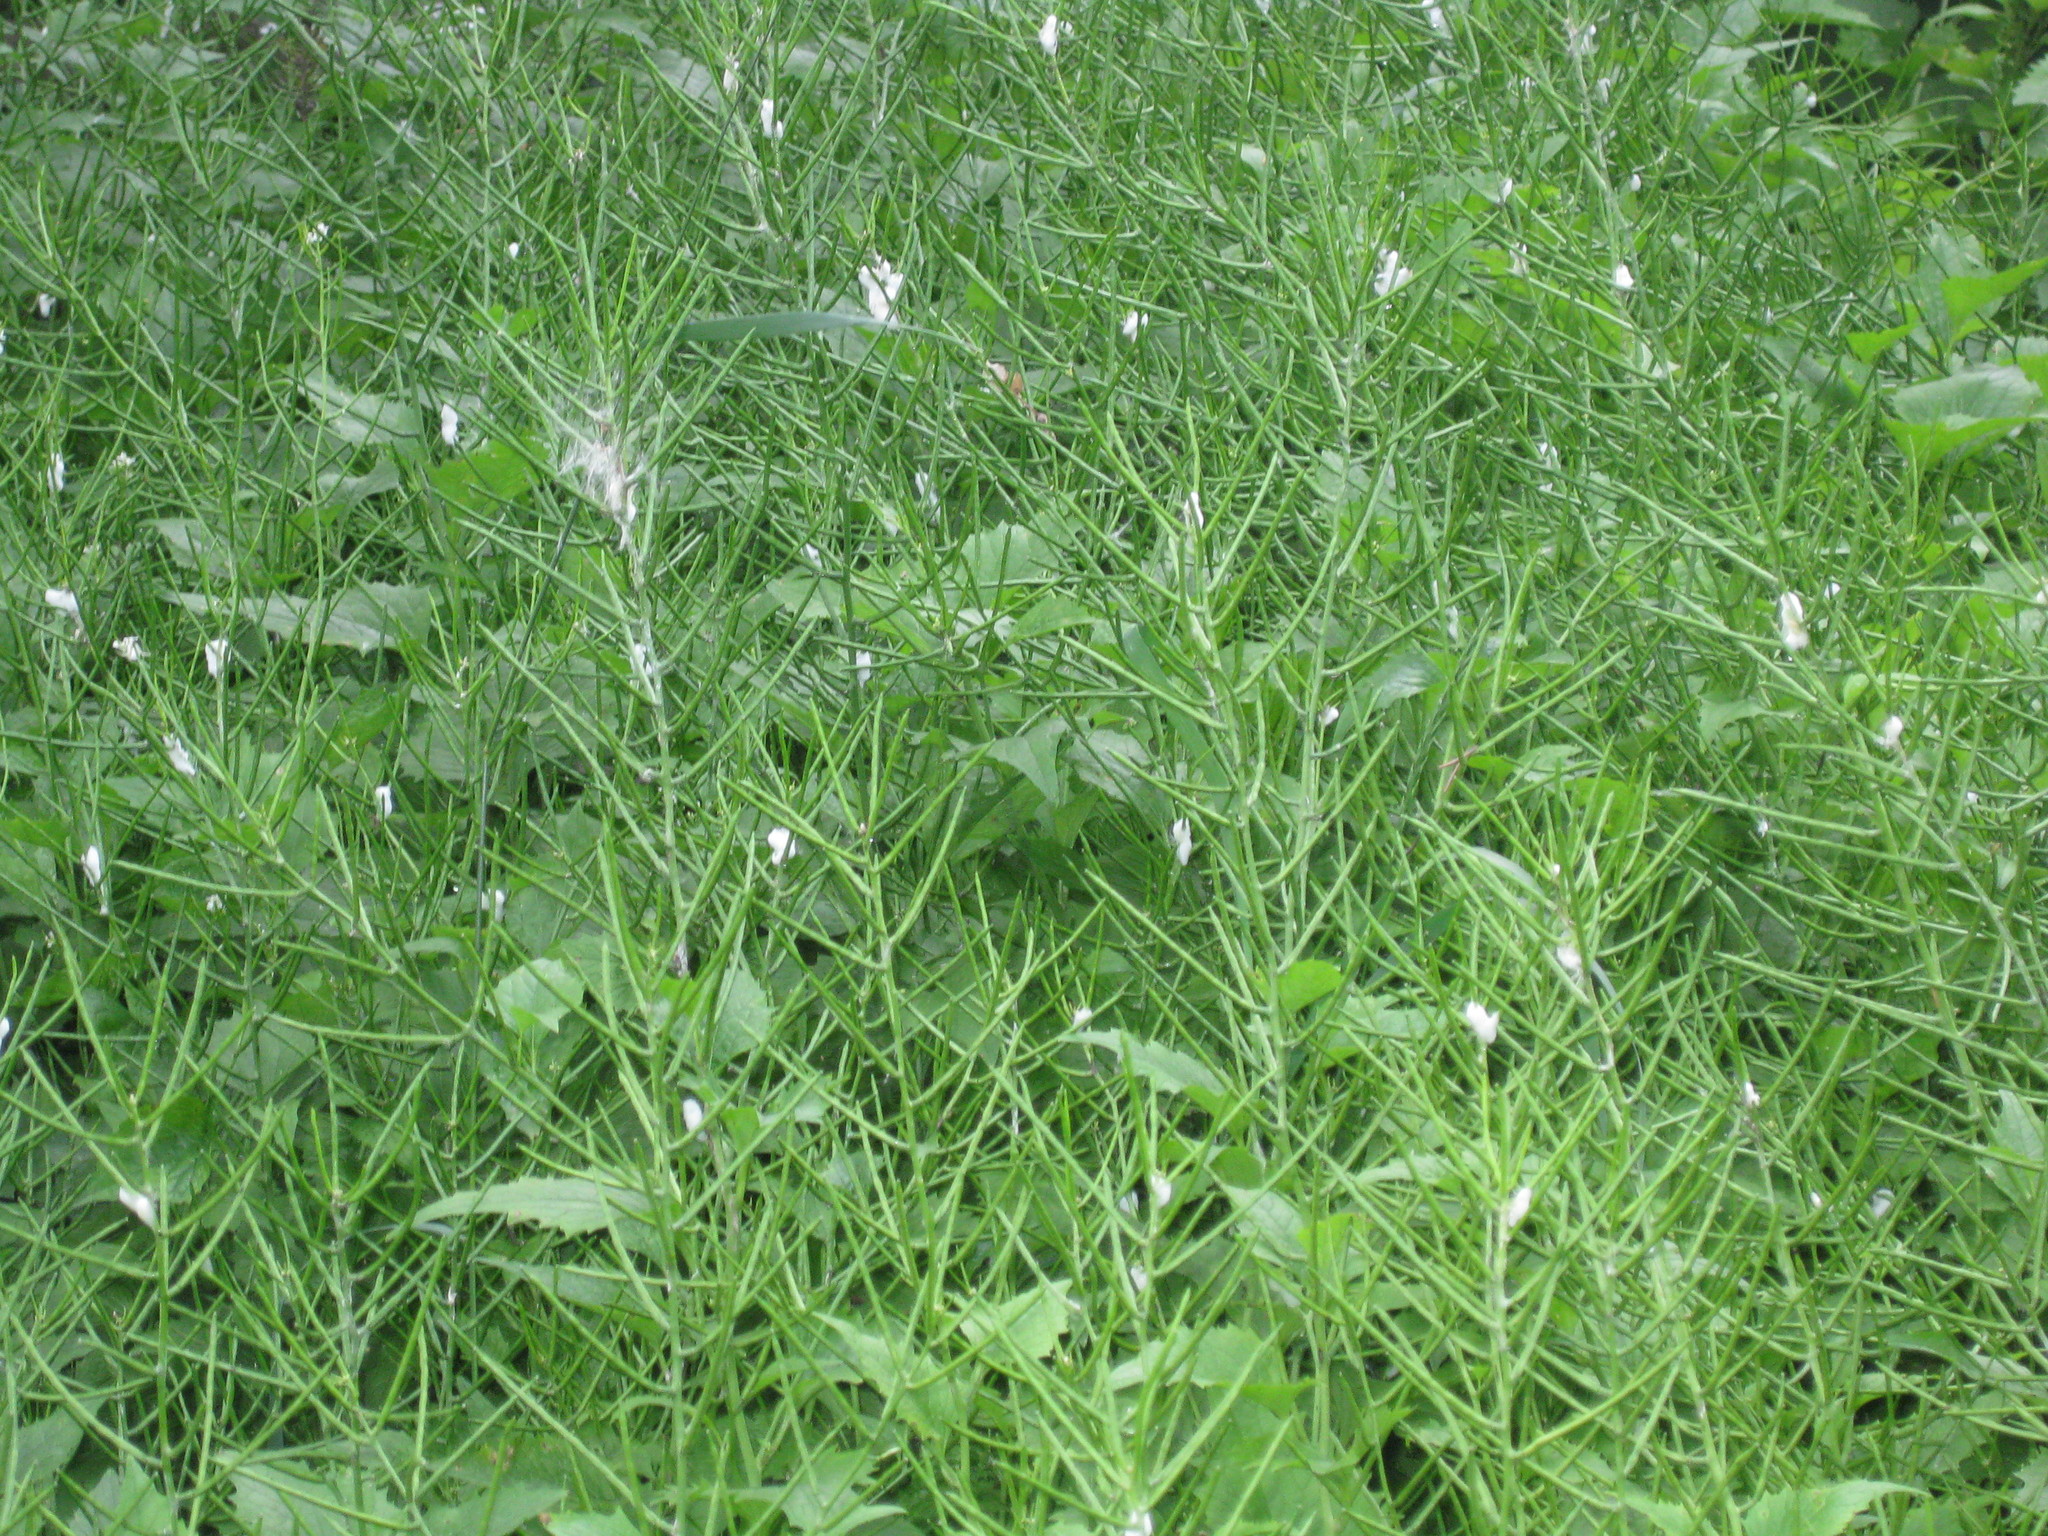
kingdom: Plantae
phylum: Tracheophyta
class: Magnoliopsida
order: Brassicales
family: Brassicaceae
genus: Alliaria
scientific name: Alliaria petiolata
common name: Garlic mustard
